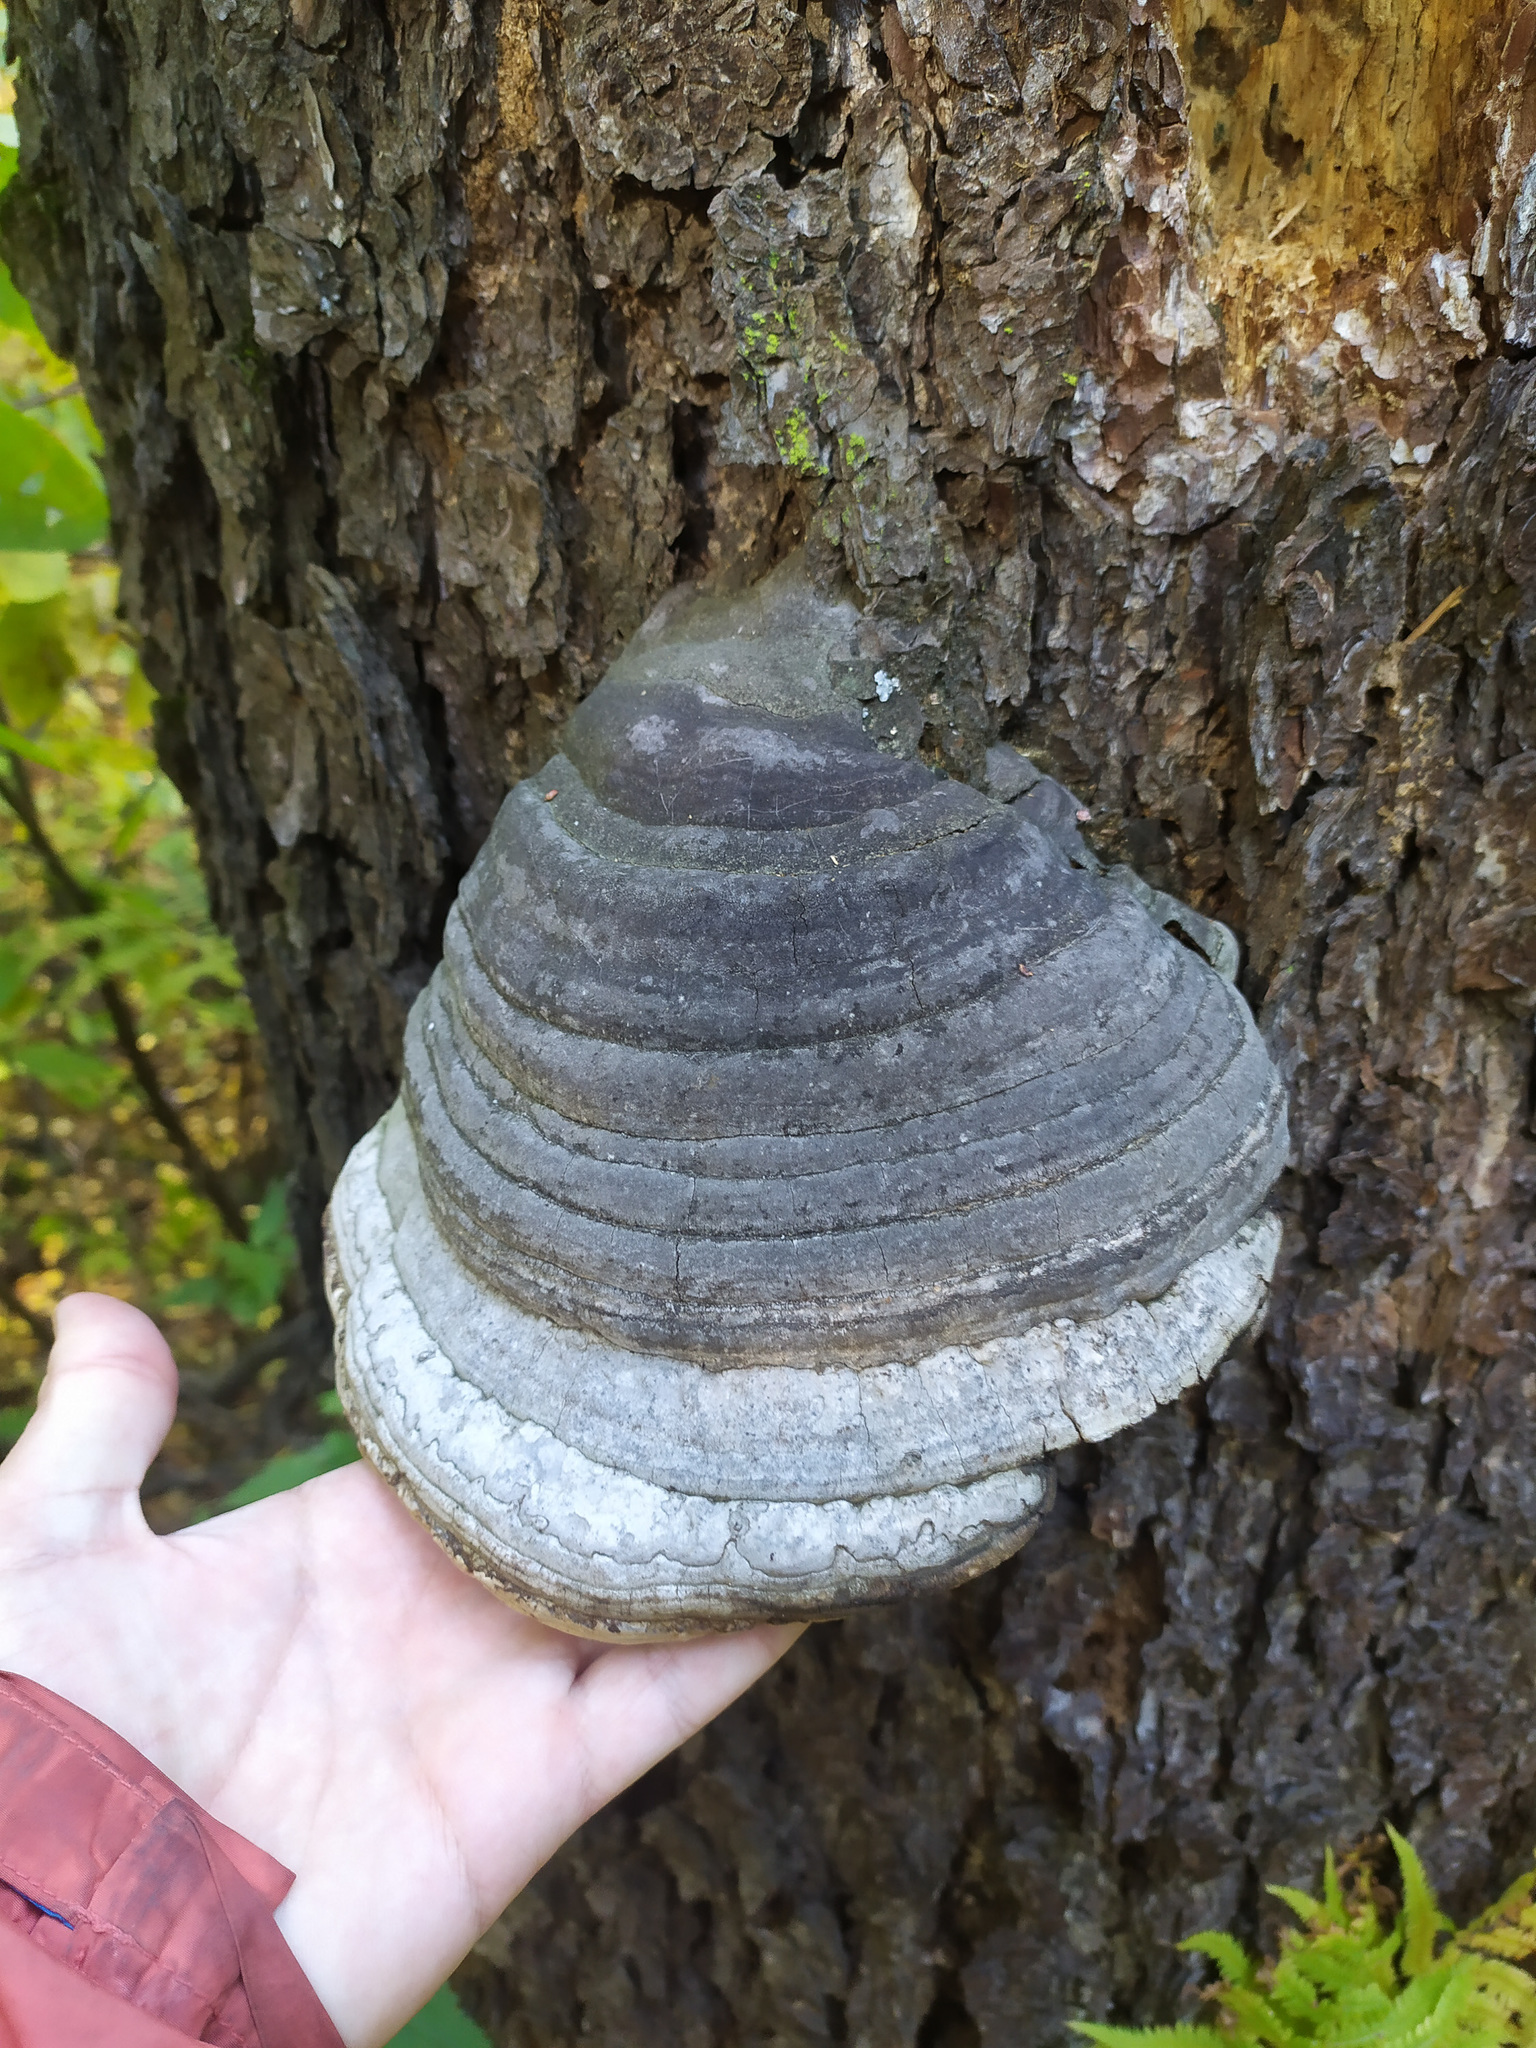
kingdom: Fungi
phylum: Basidiomycota
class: Agaricomycetes
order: Polyporales
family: Polyporaceae
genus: Fomes
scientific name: Fomes fomentarius
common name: Hoof fungus
